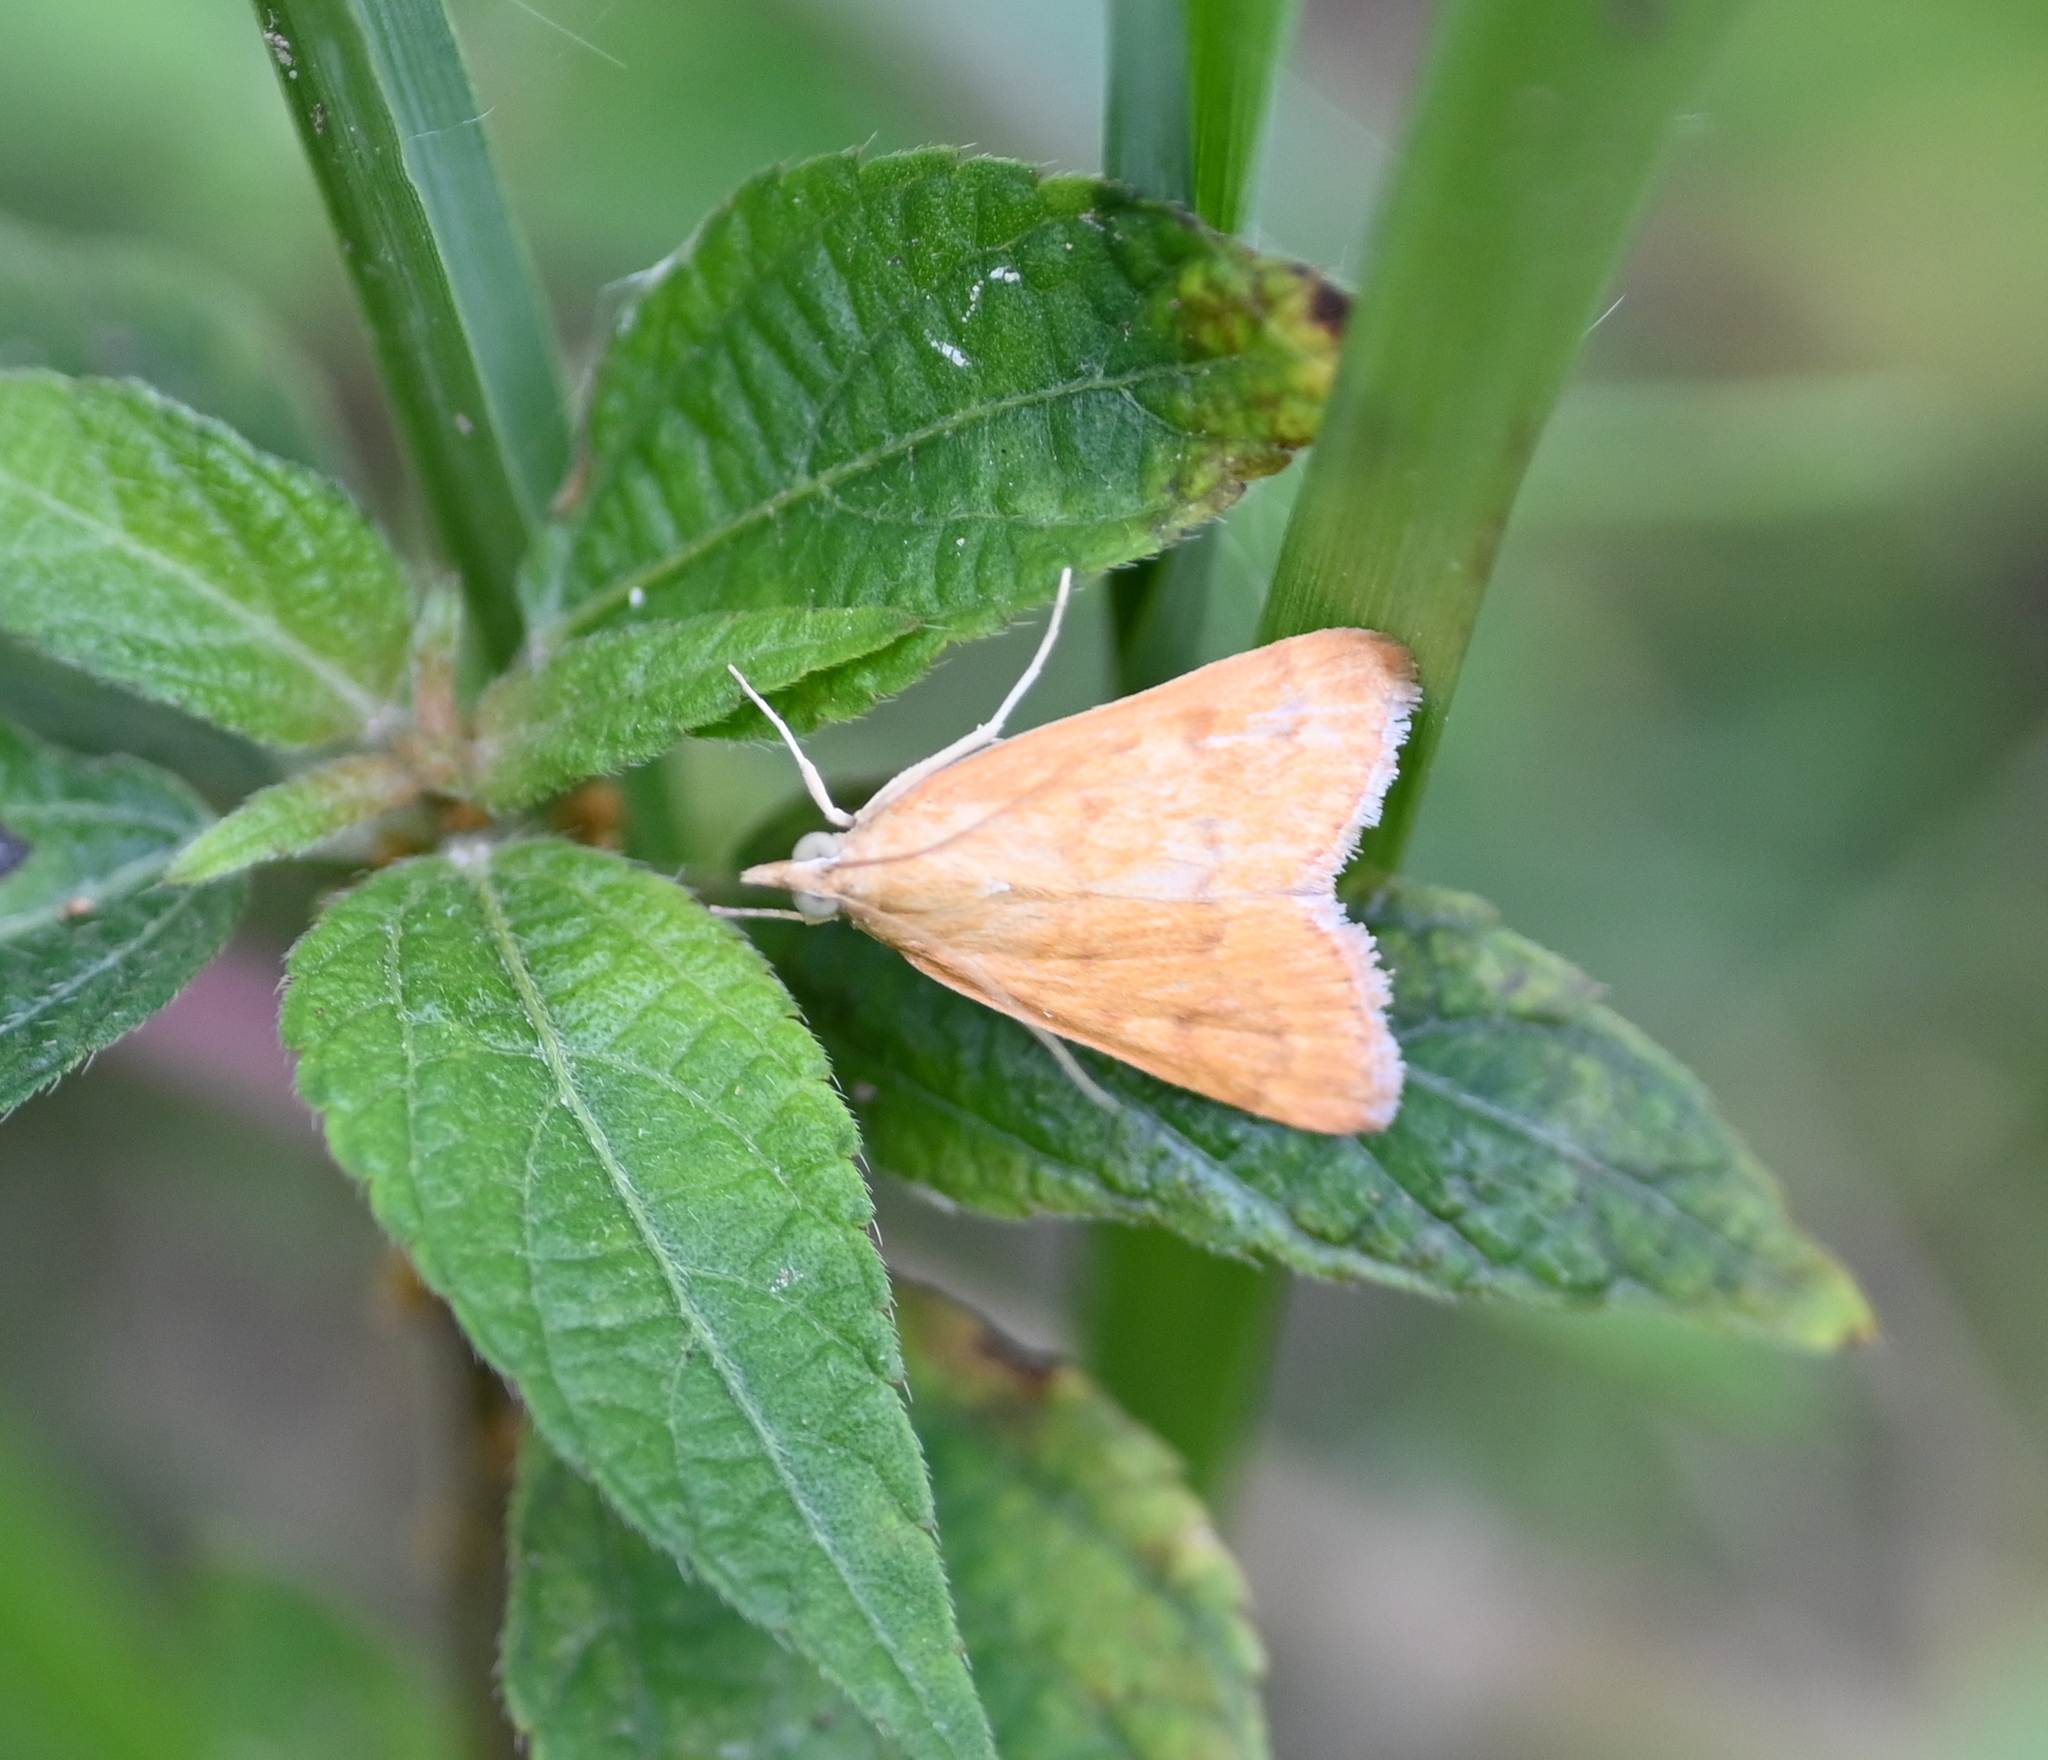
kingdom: Animalia
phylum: Arthropoda
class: Insecta
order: Lepidoptera
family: Crambidae
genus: Achyra
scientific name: Achyra rantalis
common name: Garden webworm
